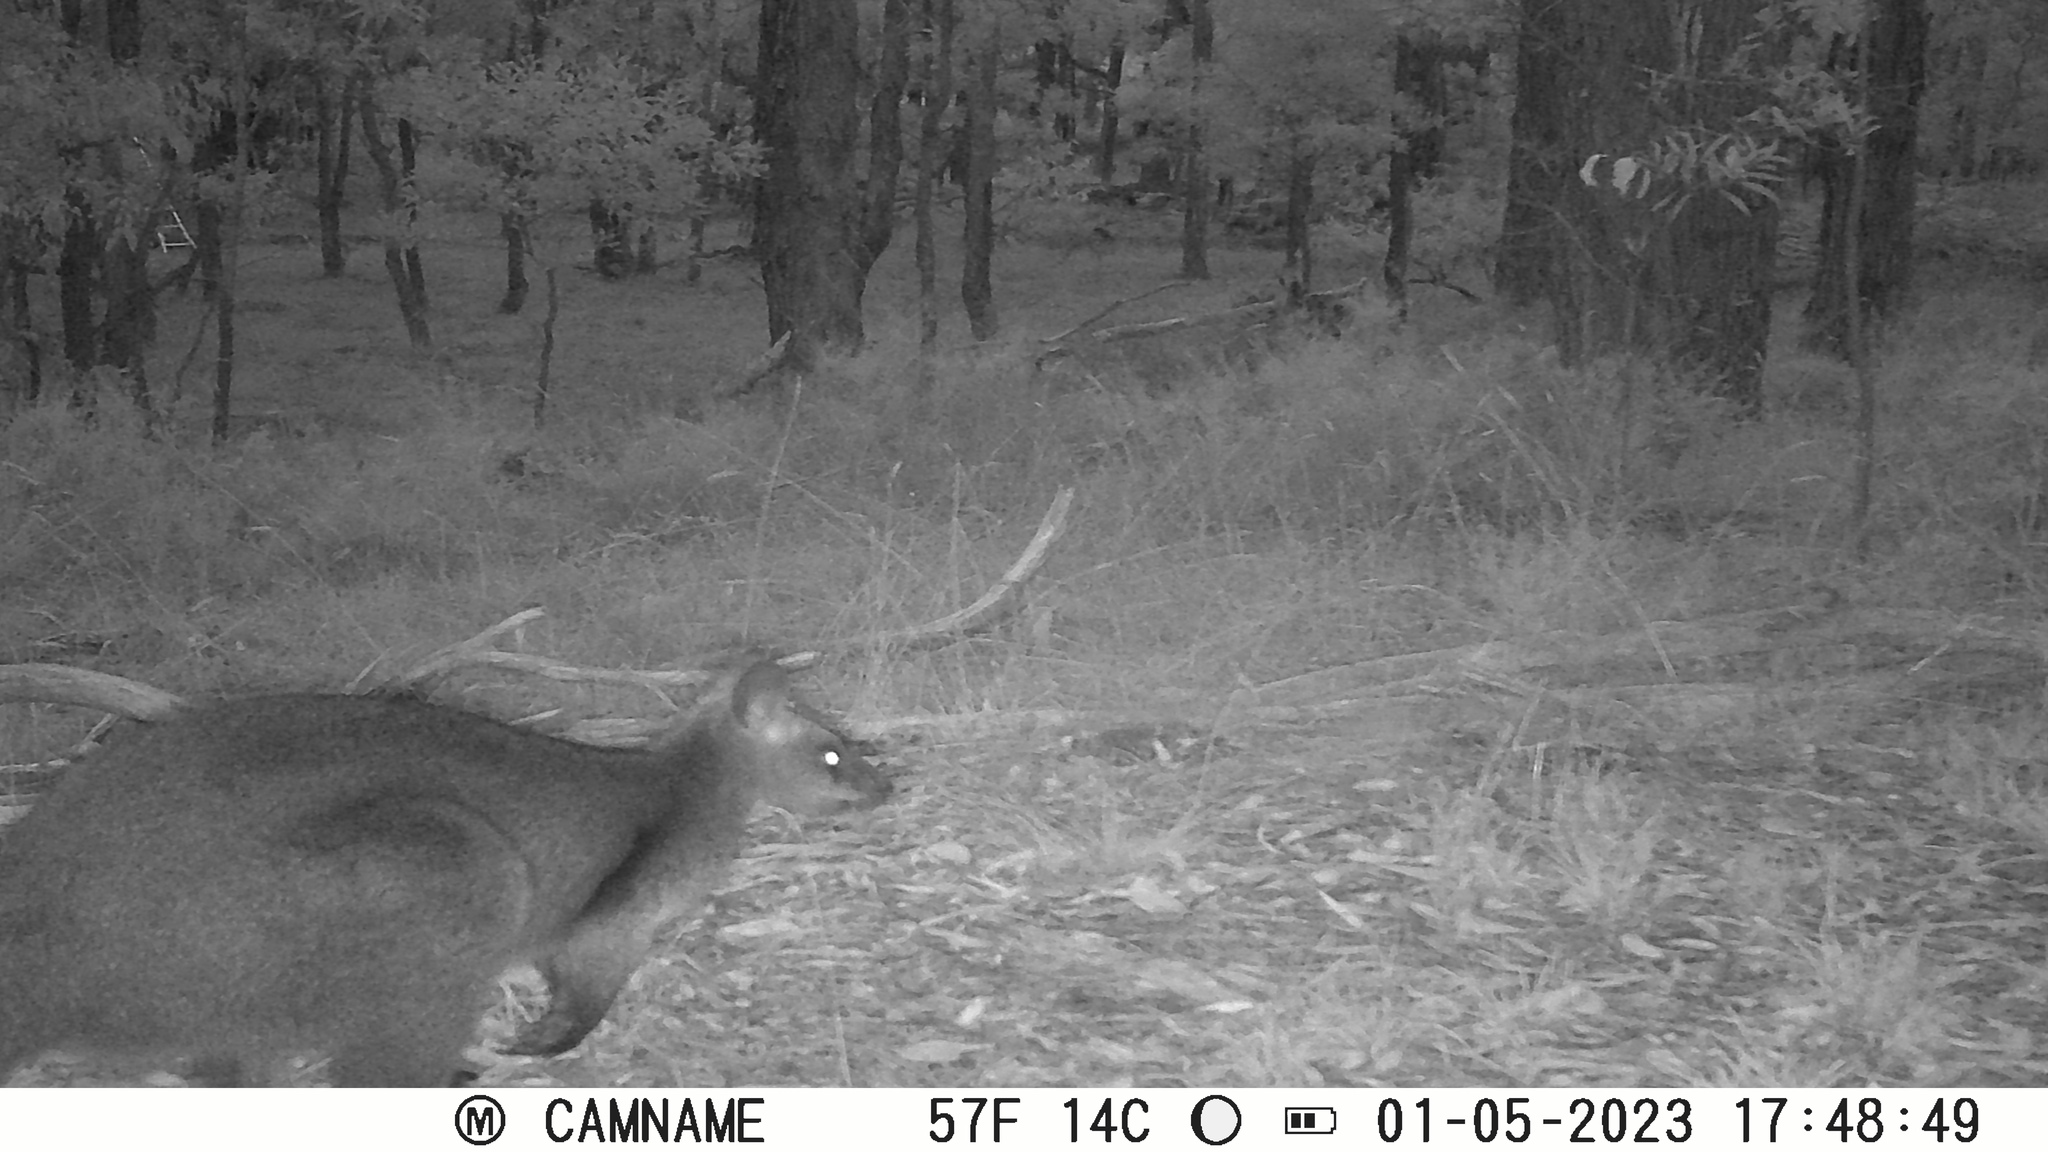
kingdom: Animalia
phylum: Chordata
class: Mammalia
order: Diprotodontia
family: Macropodidae
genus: Wallabia
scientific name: Wallabia bicolor
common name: Swamp wallaby
